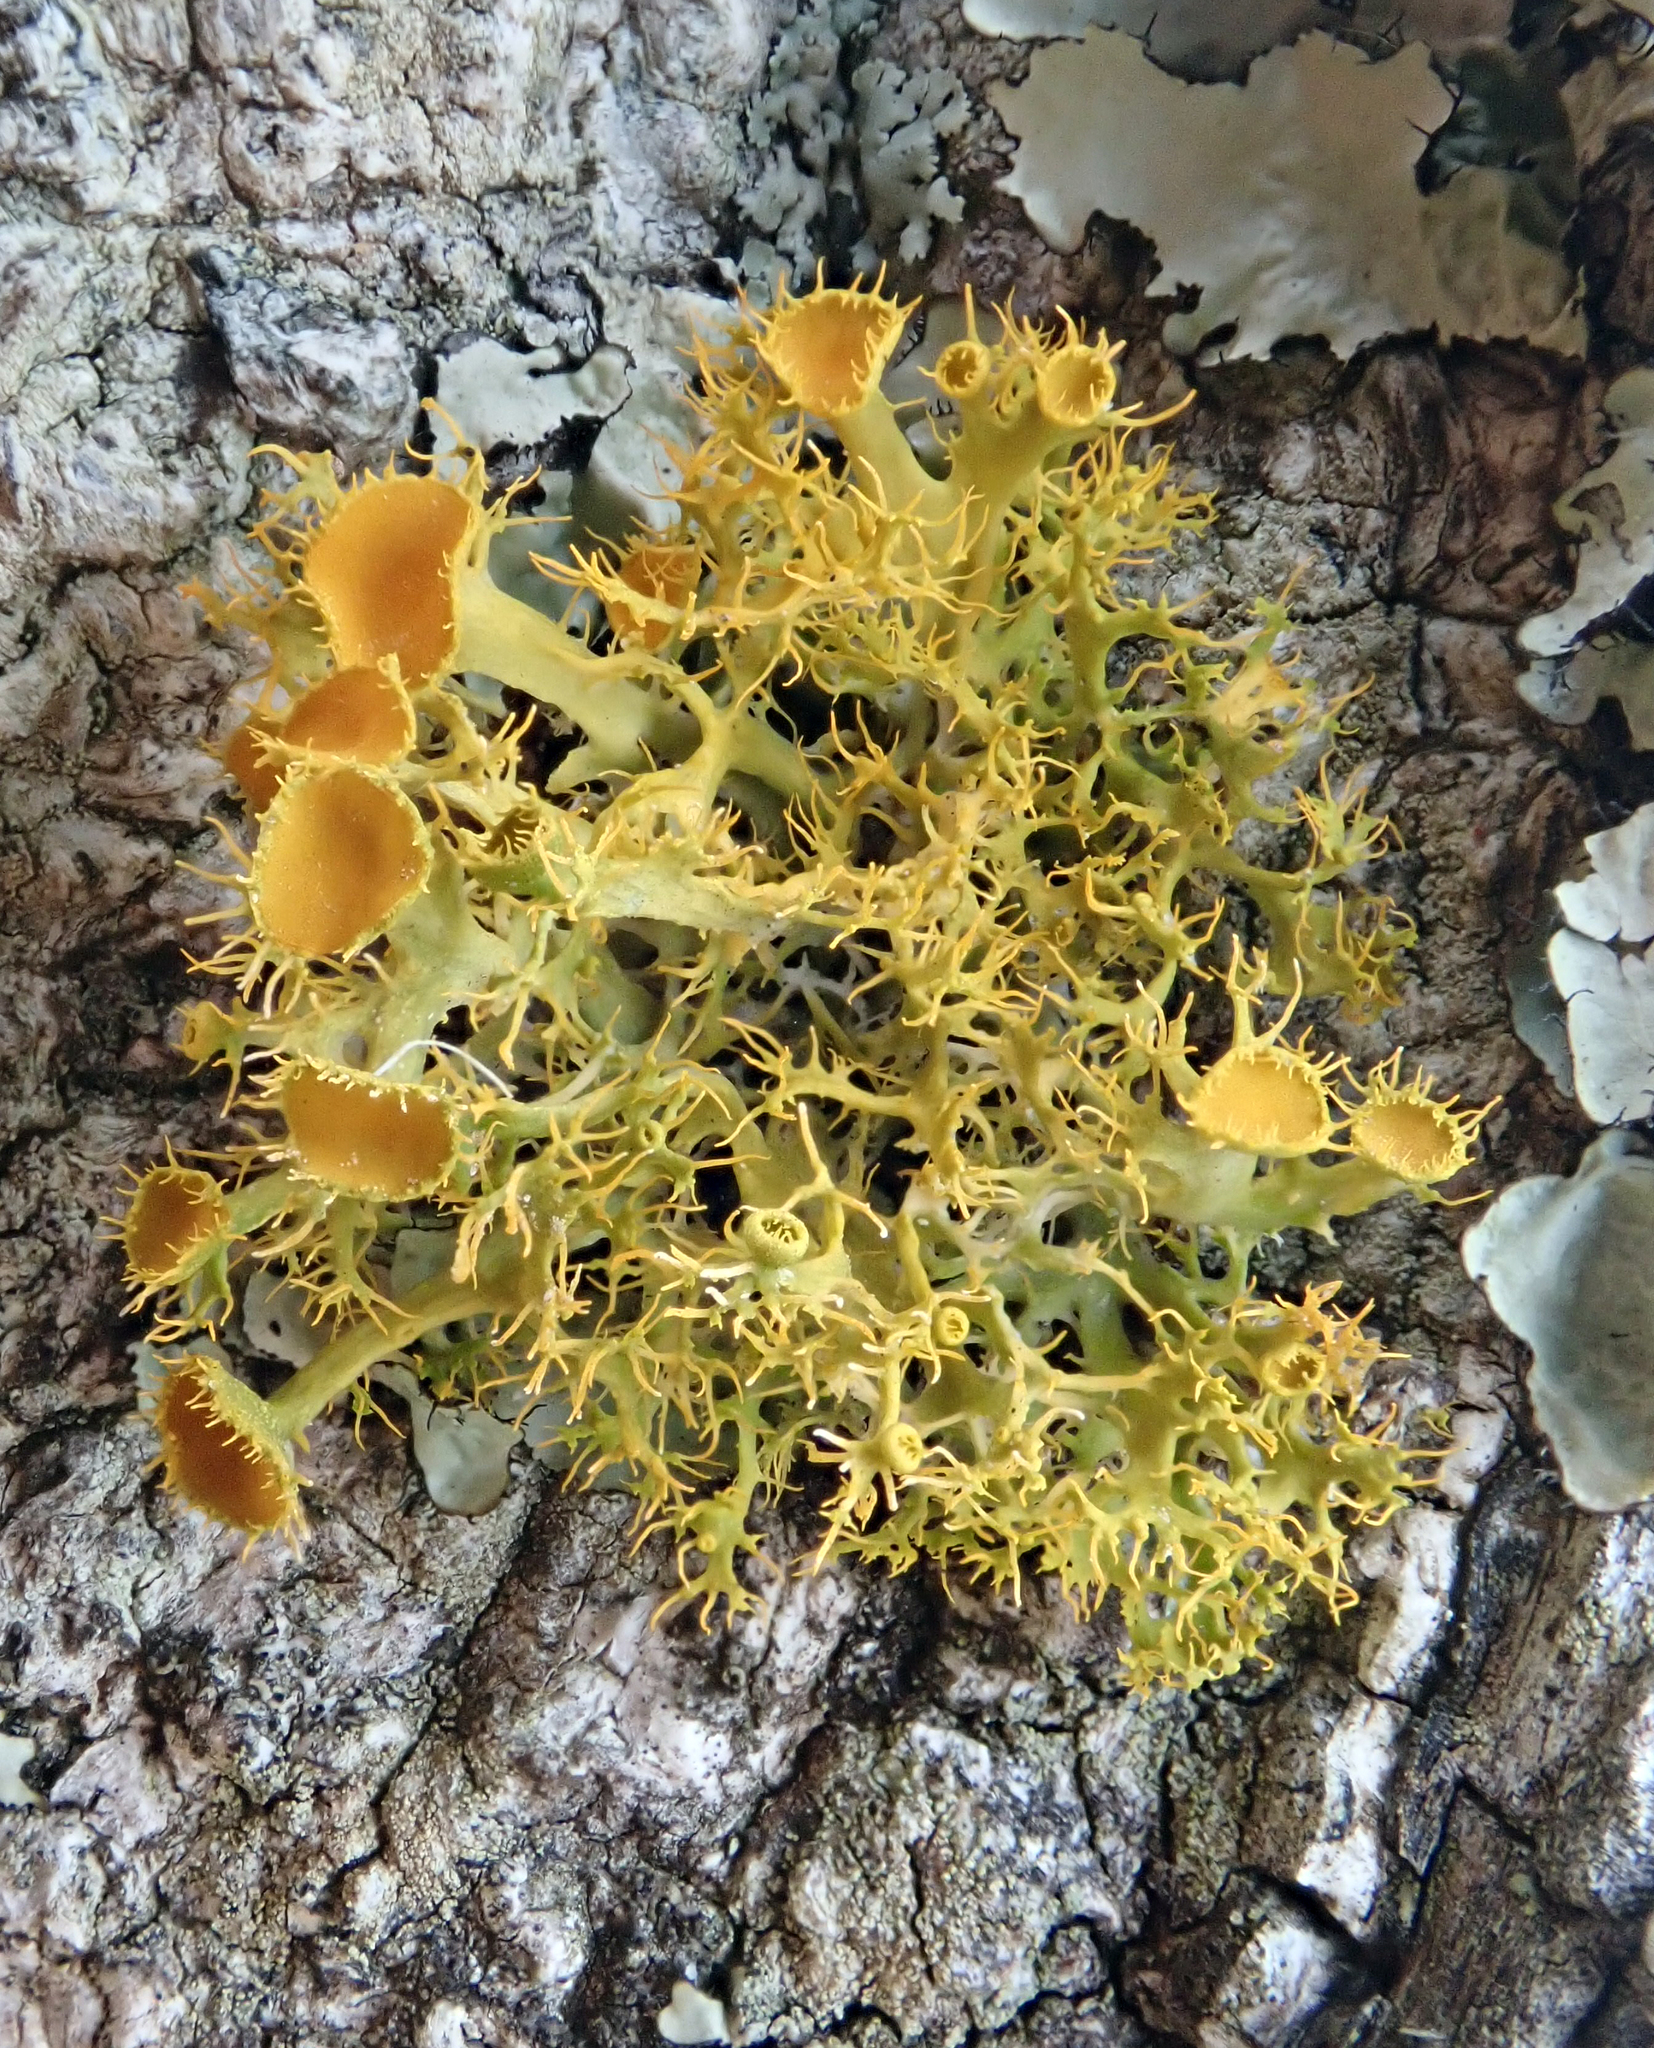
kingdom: Fungi
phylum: Ascomycota
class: Lecanoromycetes
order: Teloschistales
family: Teloschistaceae
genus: Niorma
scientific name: Niorma chrysophthalma
